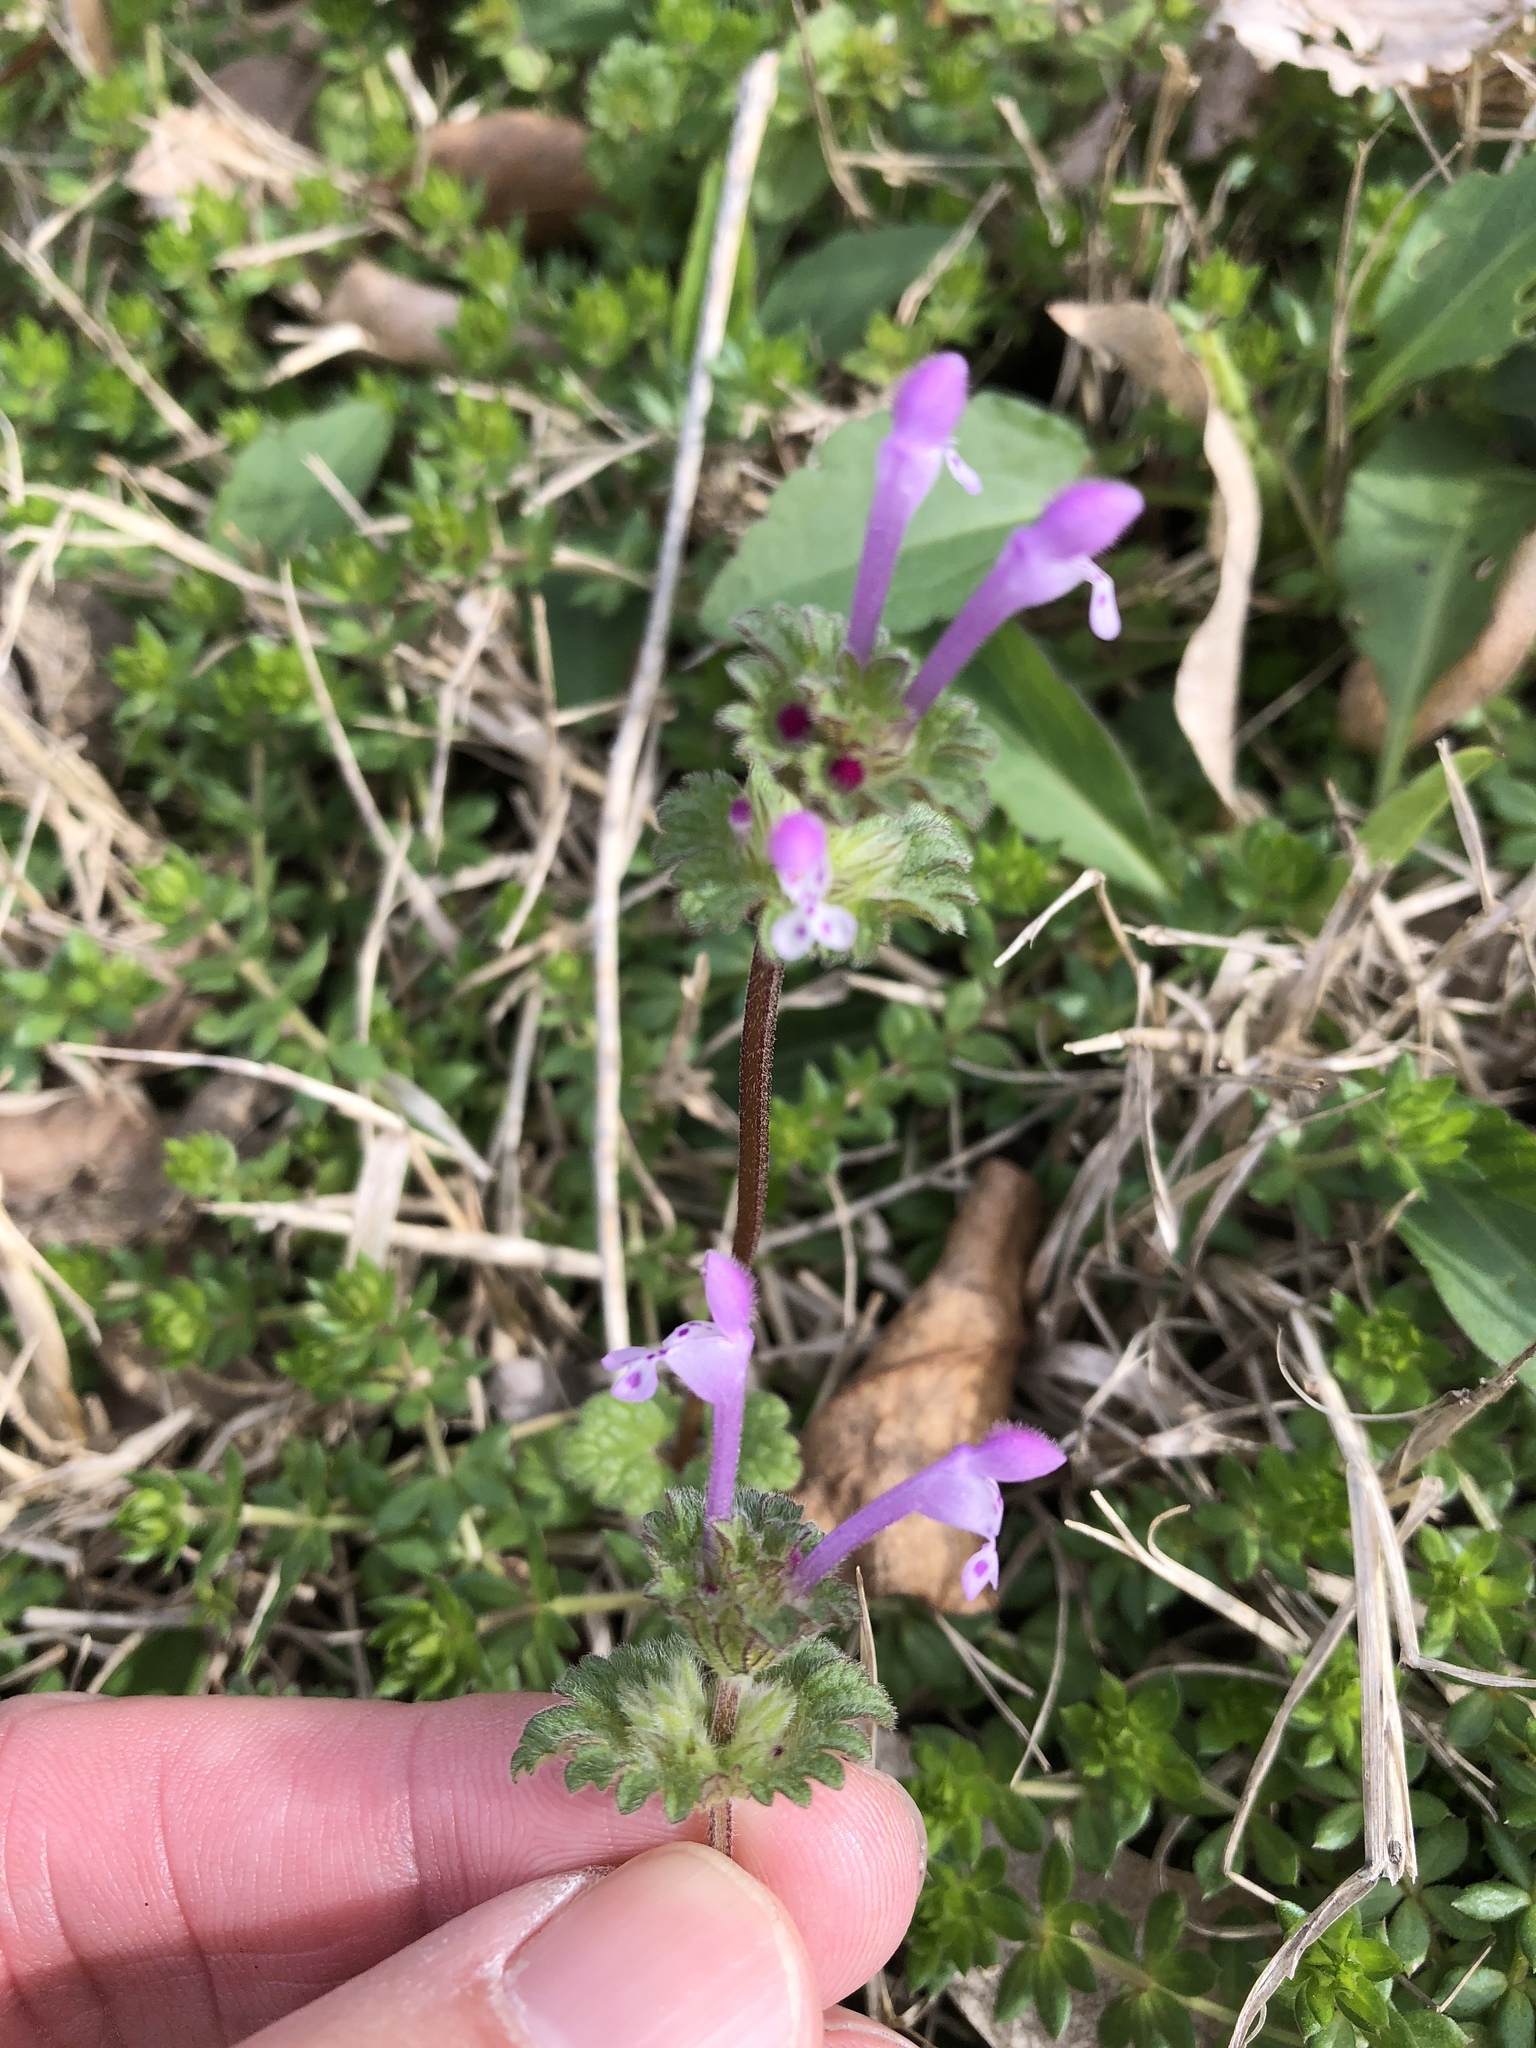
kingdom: Plantae
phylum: Tracheophyta
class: Magnoliopsida
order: Lamiales
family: Lamiaceae
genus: Lamium
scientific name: Lamium amplexicaule
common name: Henbit dead-nettle
